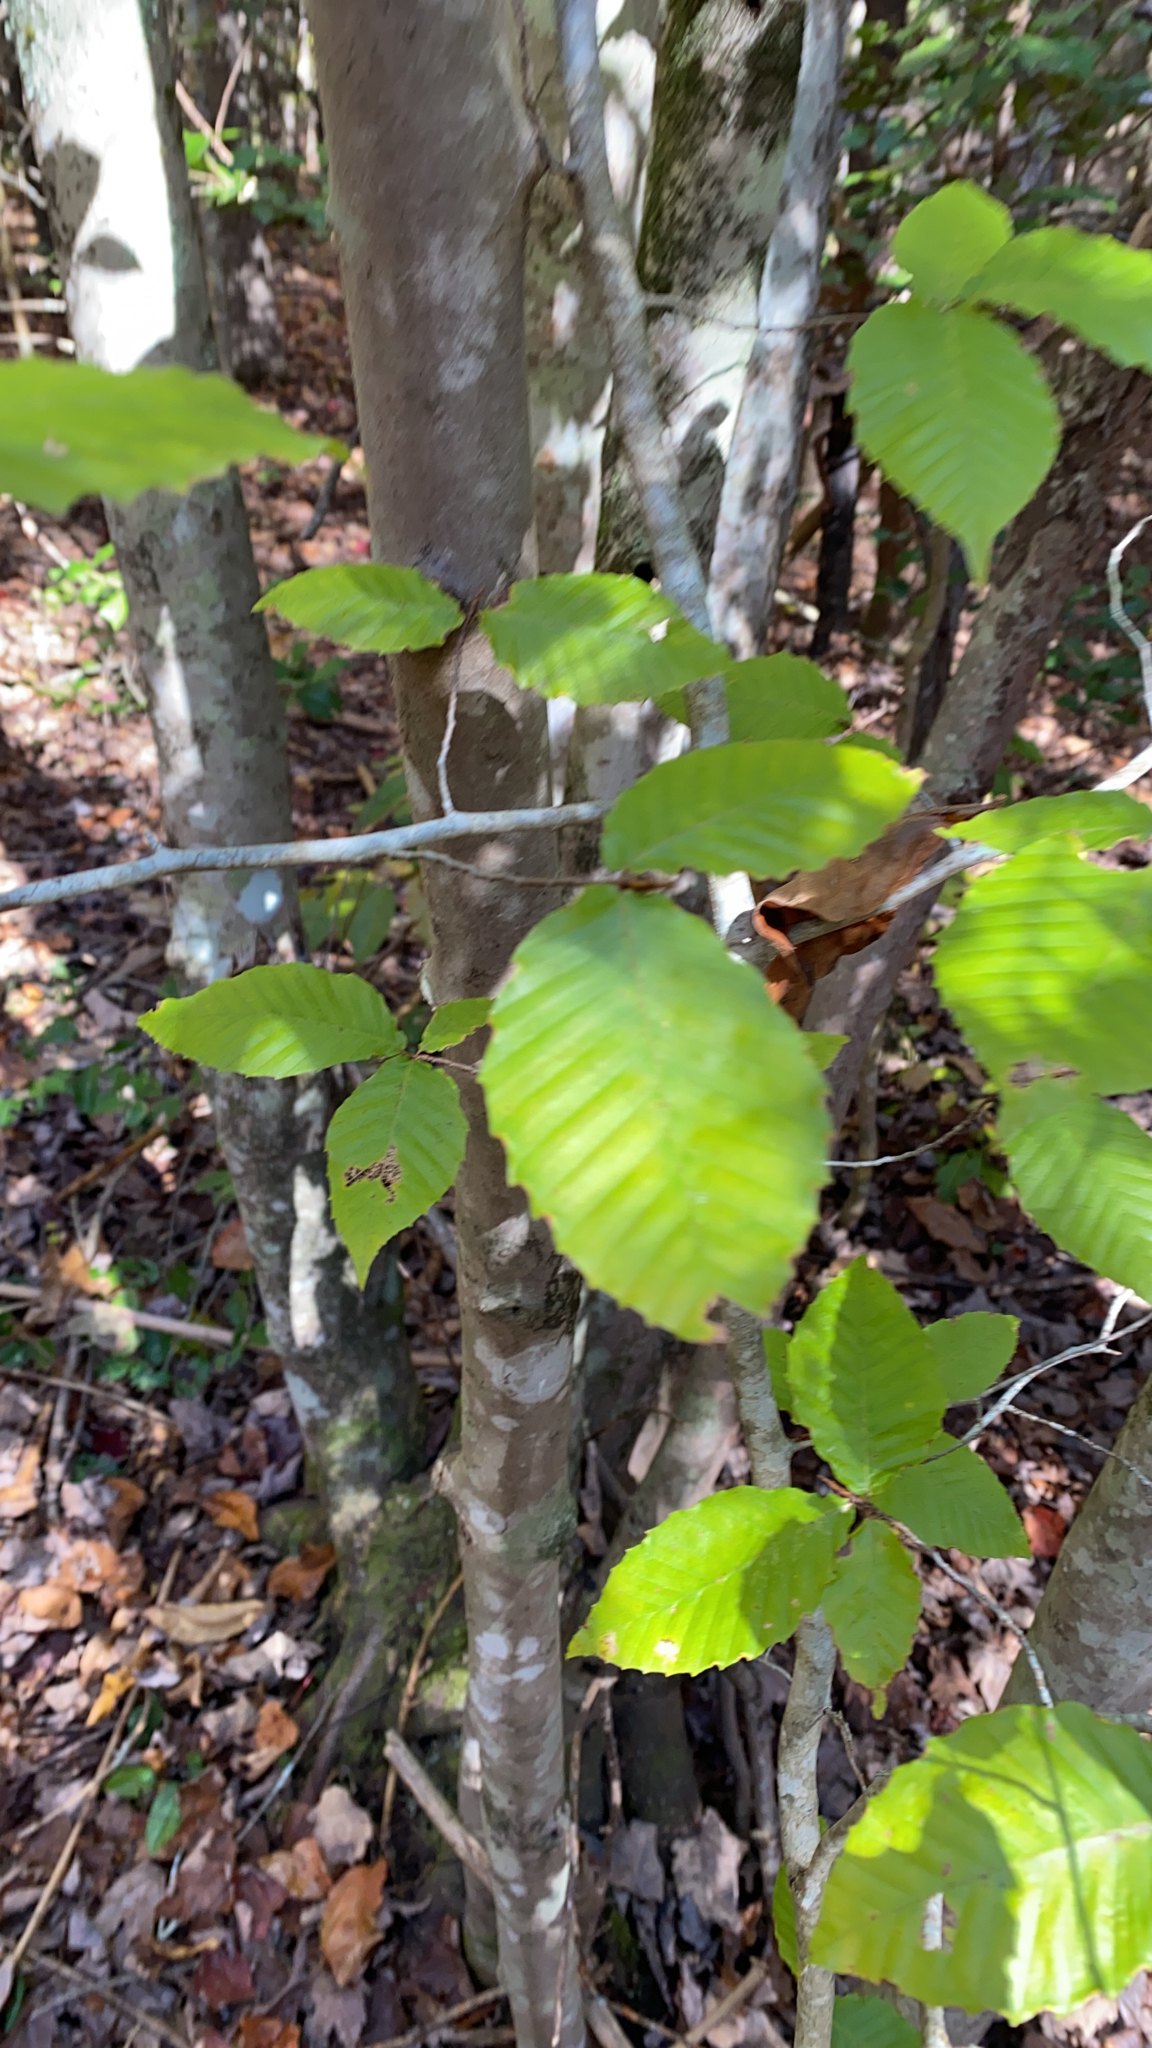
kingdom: Plantae
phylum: Tracheophyta
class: Magnoliopsida
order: Fagales
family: Fagaceae
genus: Fagus
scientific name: Fagus grandifolia
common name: American beech
